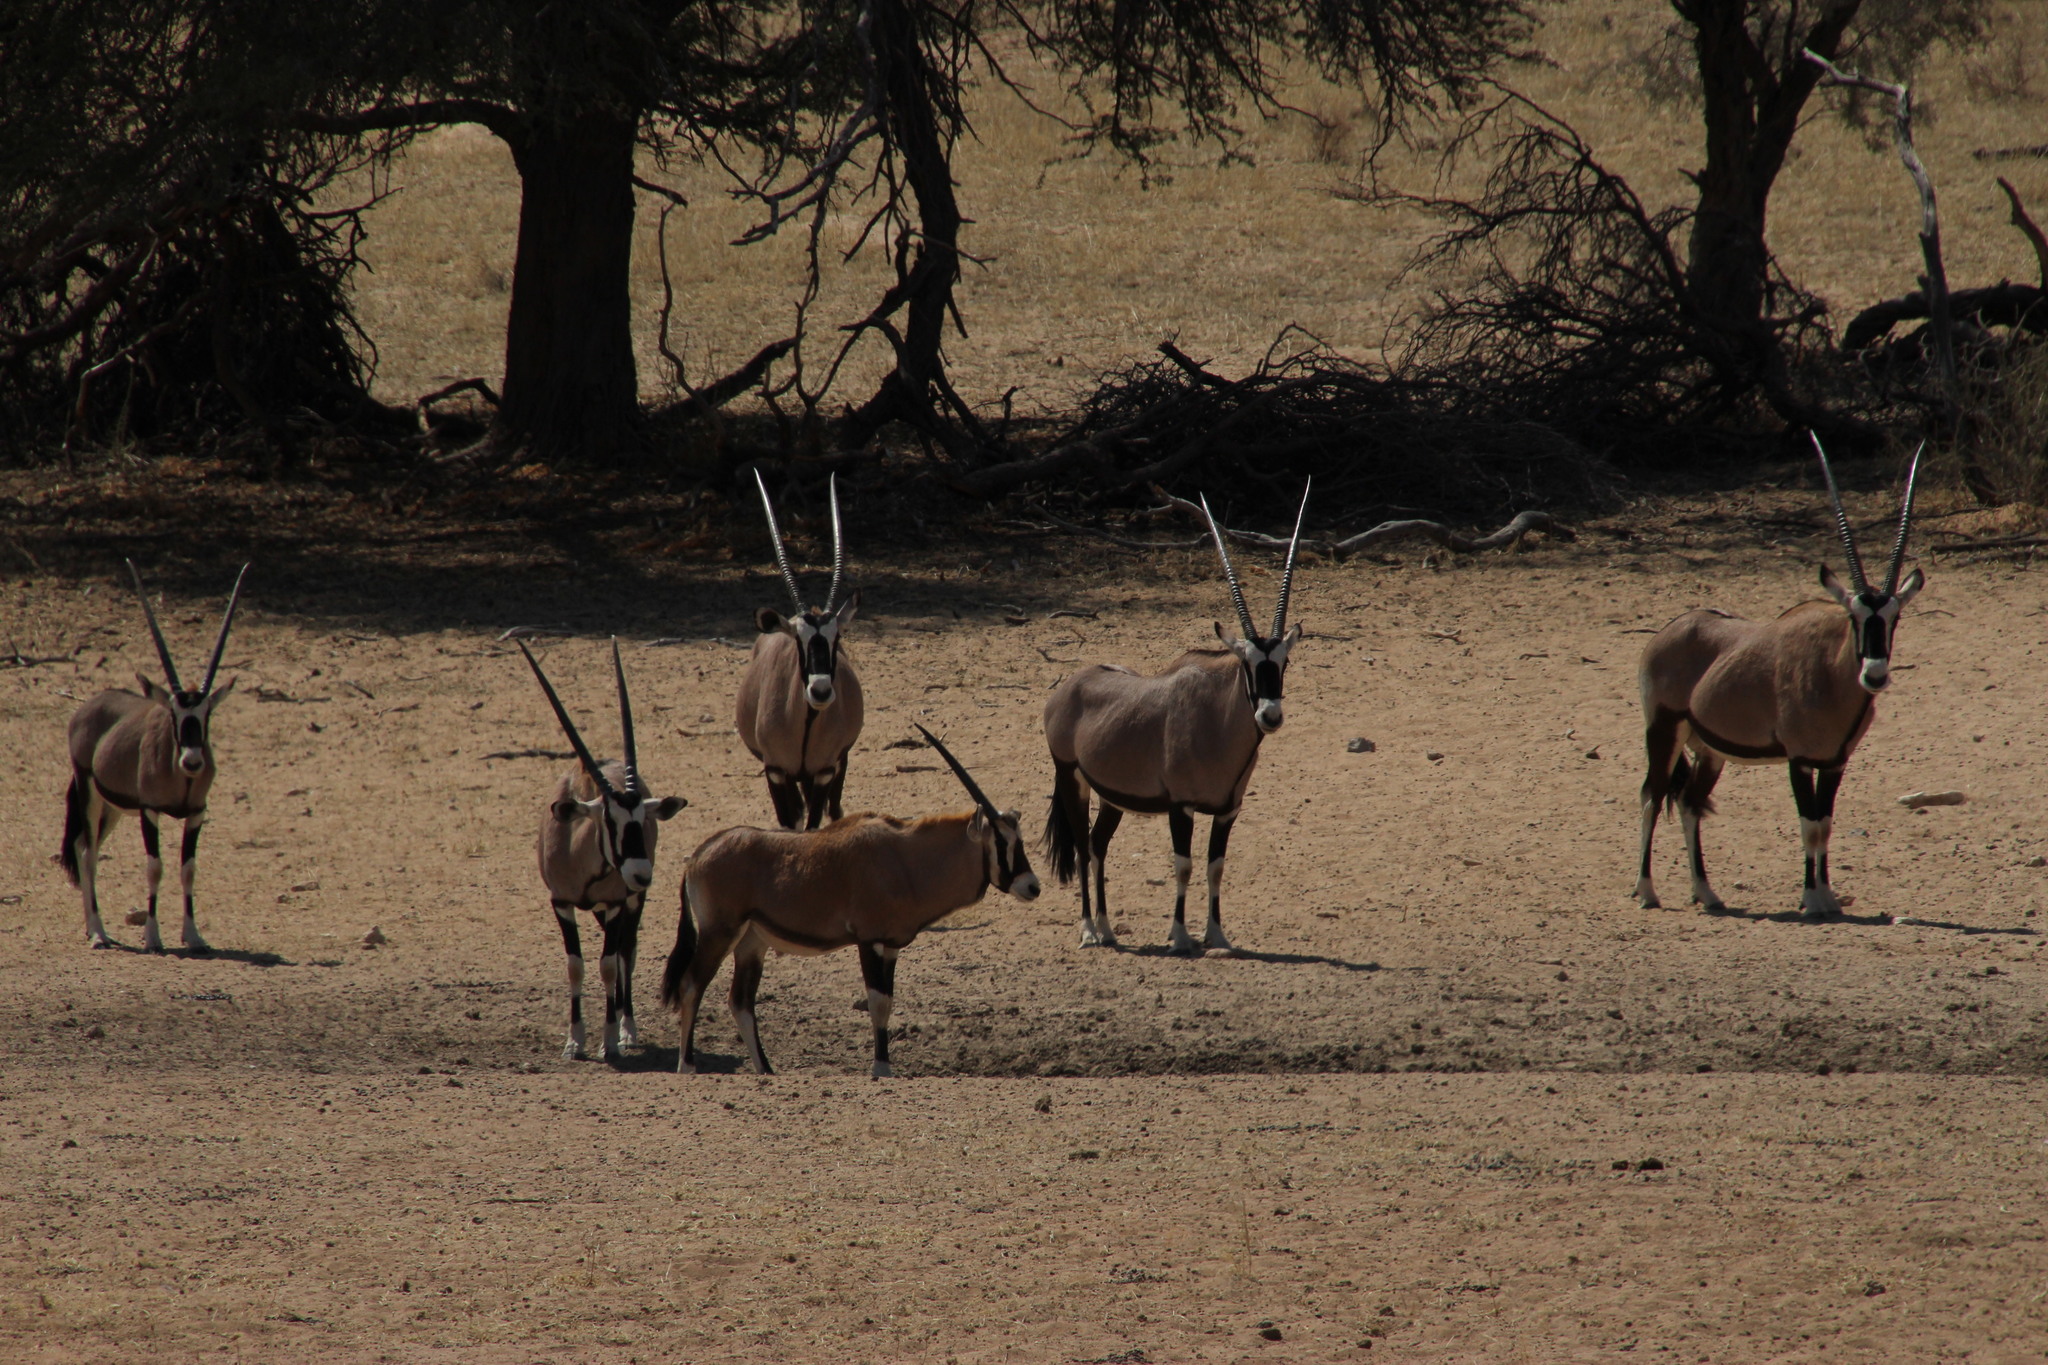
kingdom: Animalia
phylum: Chordata
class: Mammalia
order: Artiodactyla
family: Bovidae
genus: Oryx
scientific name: Oryx gazella
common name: Gemsbok
